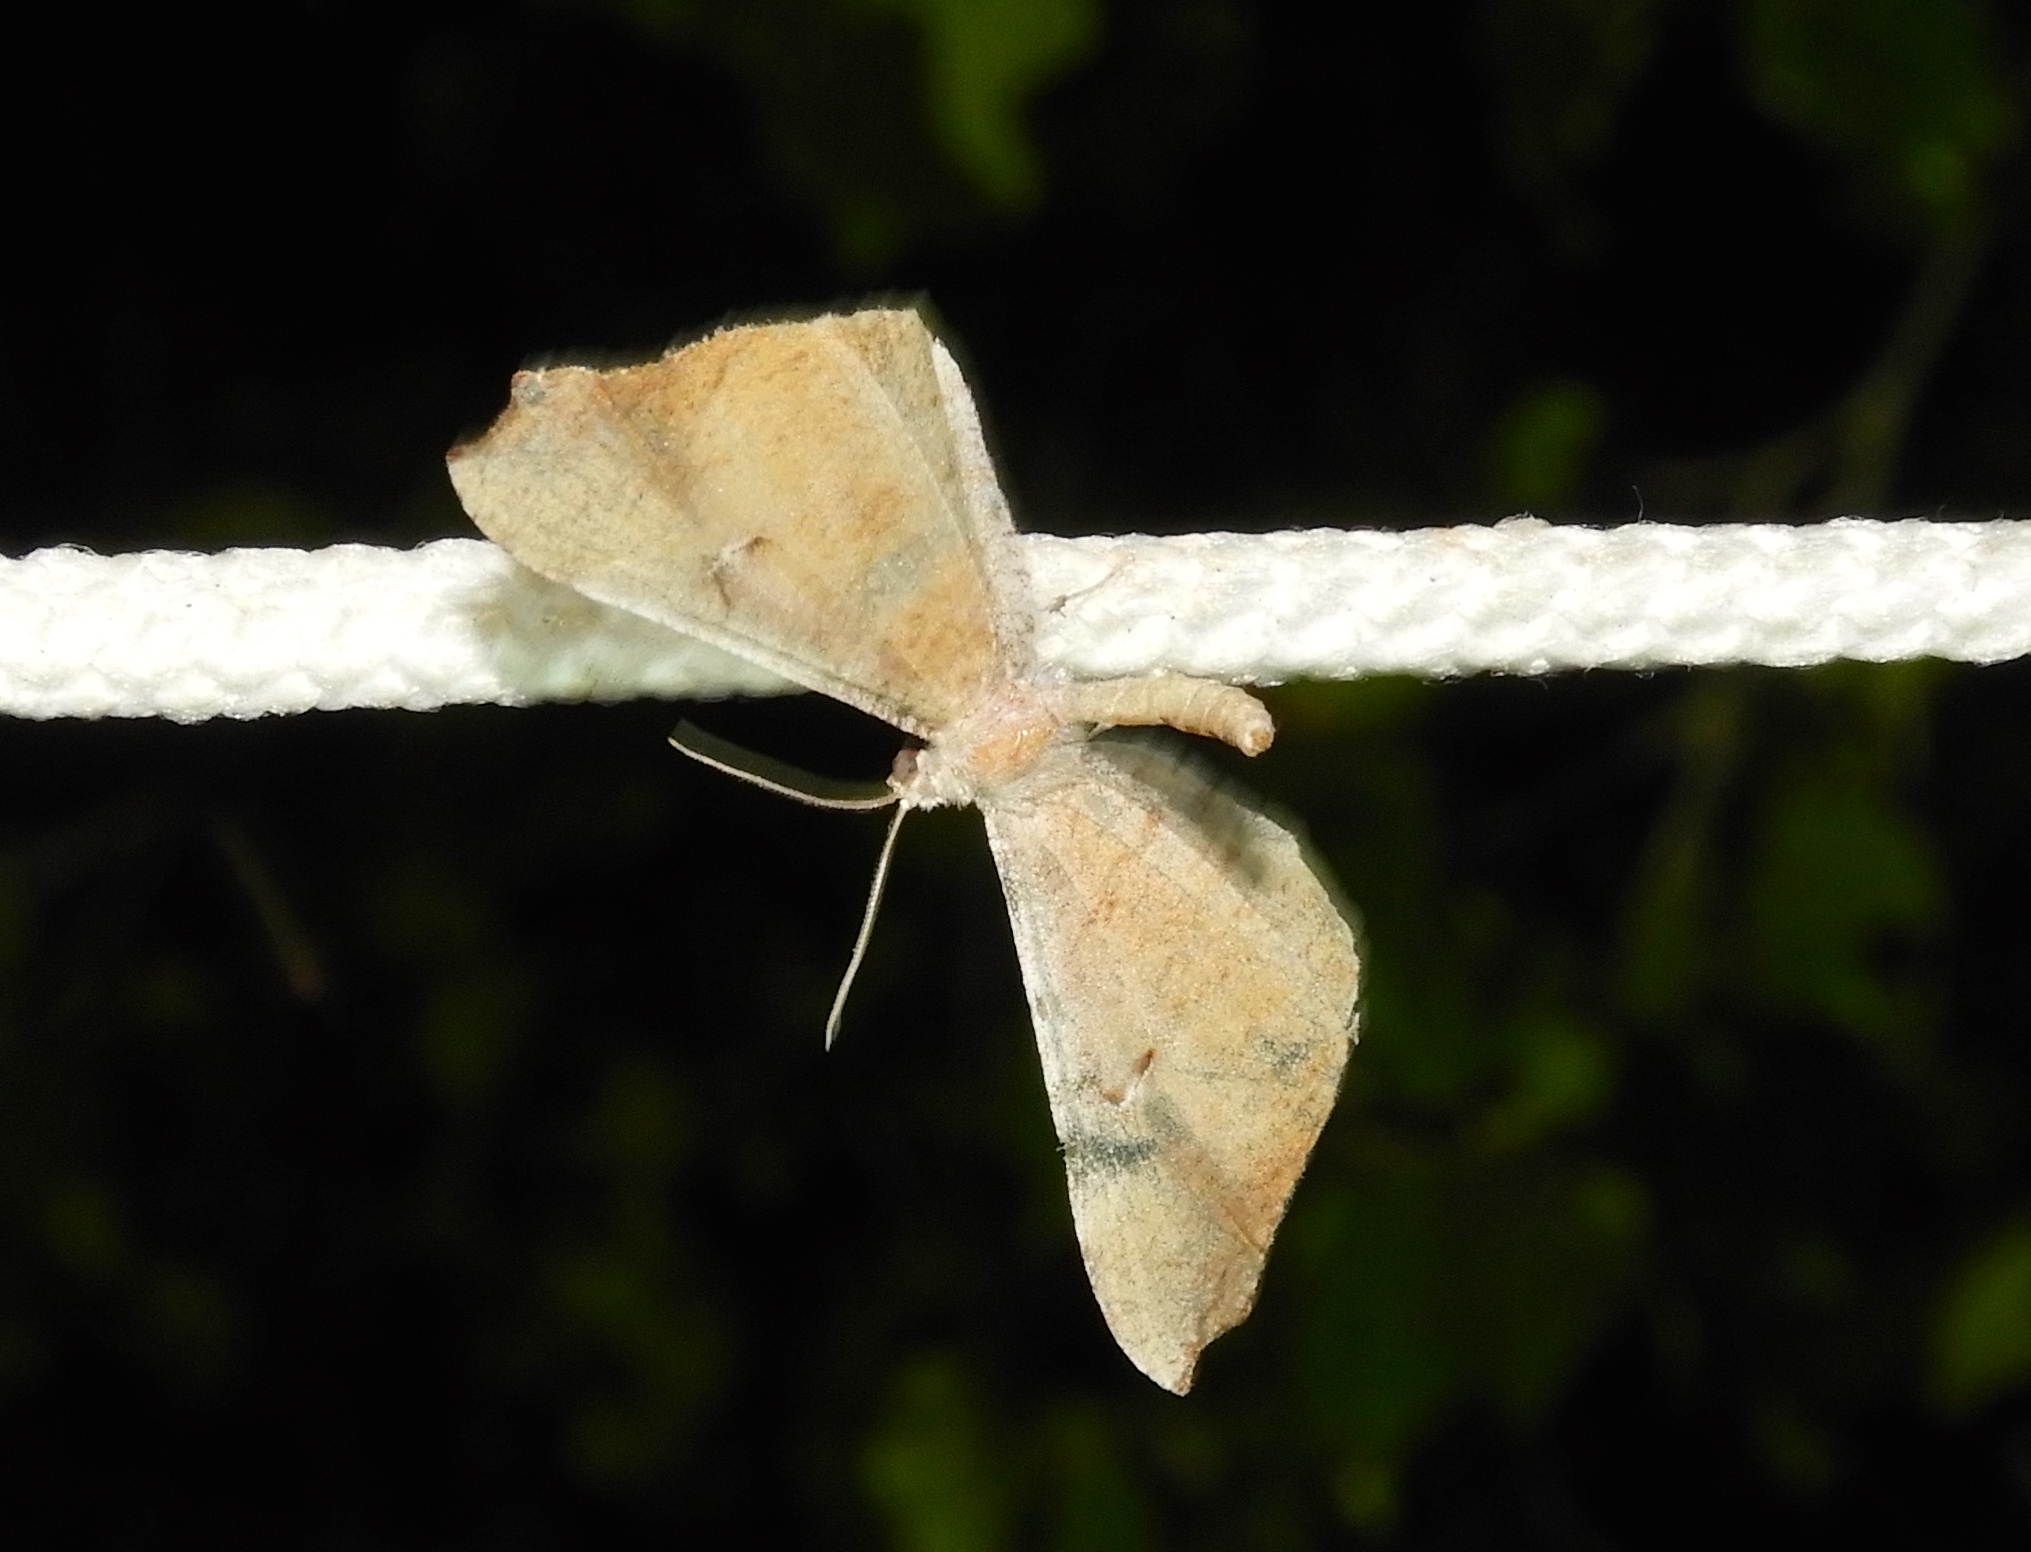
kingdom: Animalia
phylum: Arthropoda
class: Insecta
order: Lepidoptera
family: Hedylidae
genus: Macrosoma
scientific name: Macrosoma
